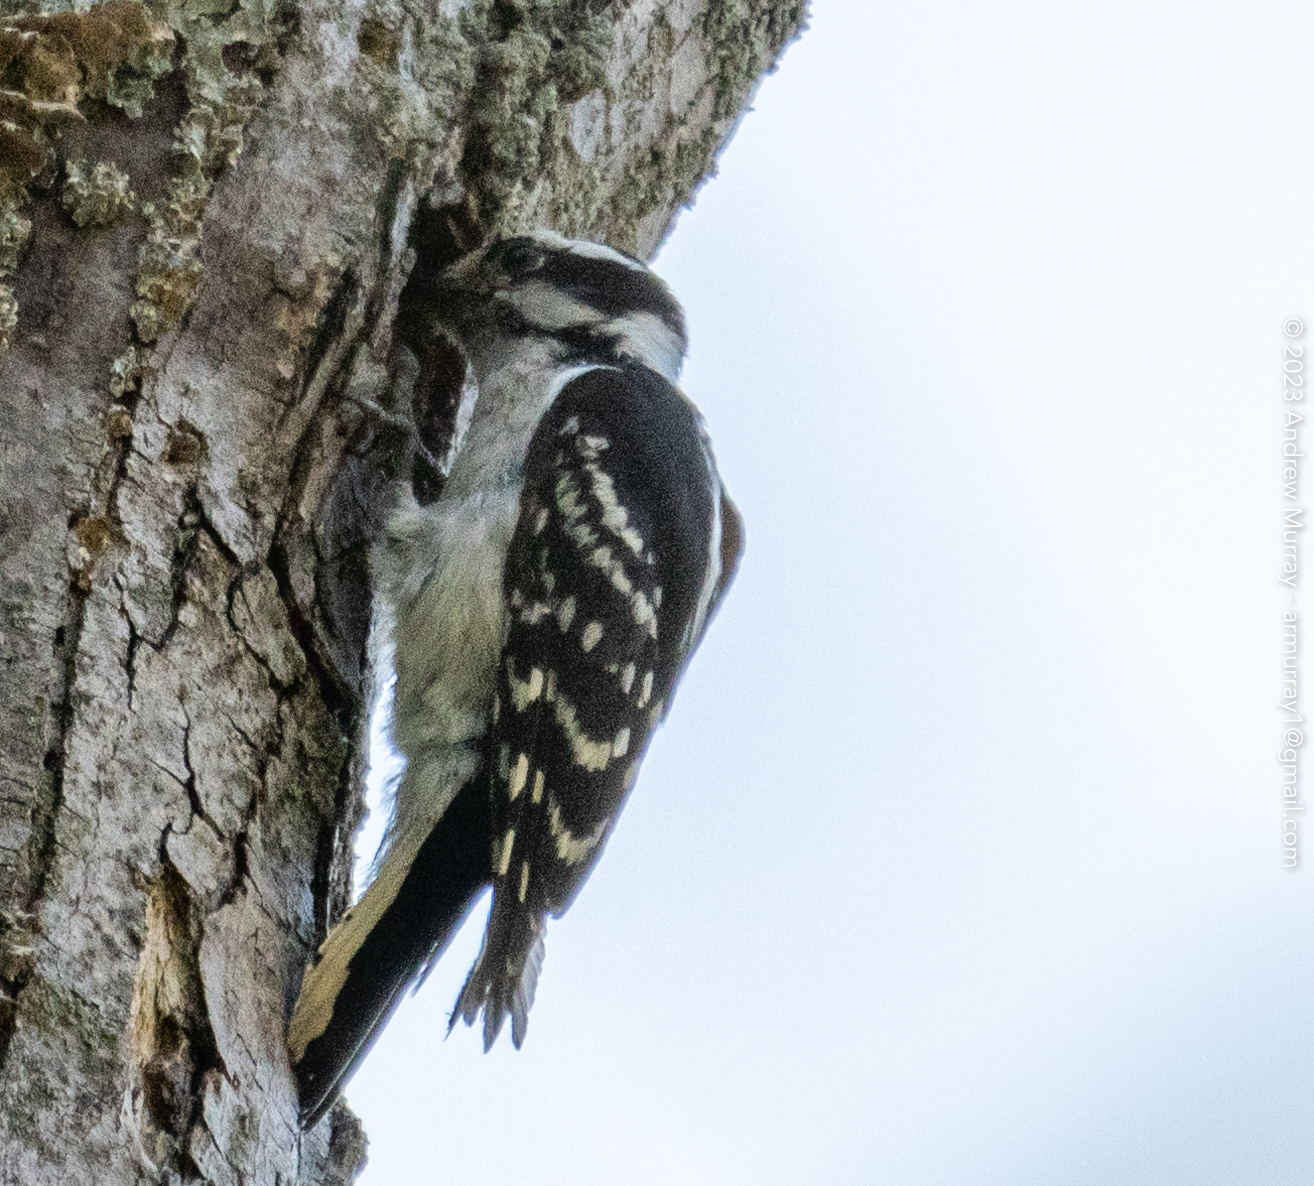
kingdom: Animalia
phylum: Chordata
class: Aves
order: Piciformes
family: Picidae
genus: Dryobates
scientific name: Dryobates pubescens
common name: Downy woodpecker
